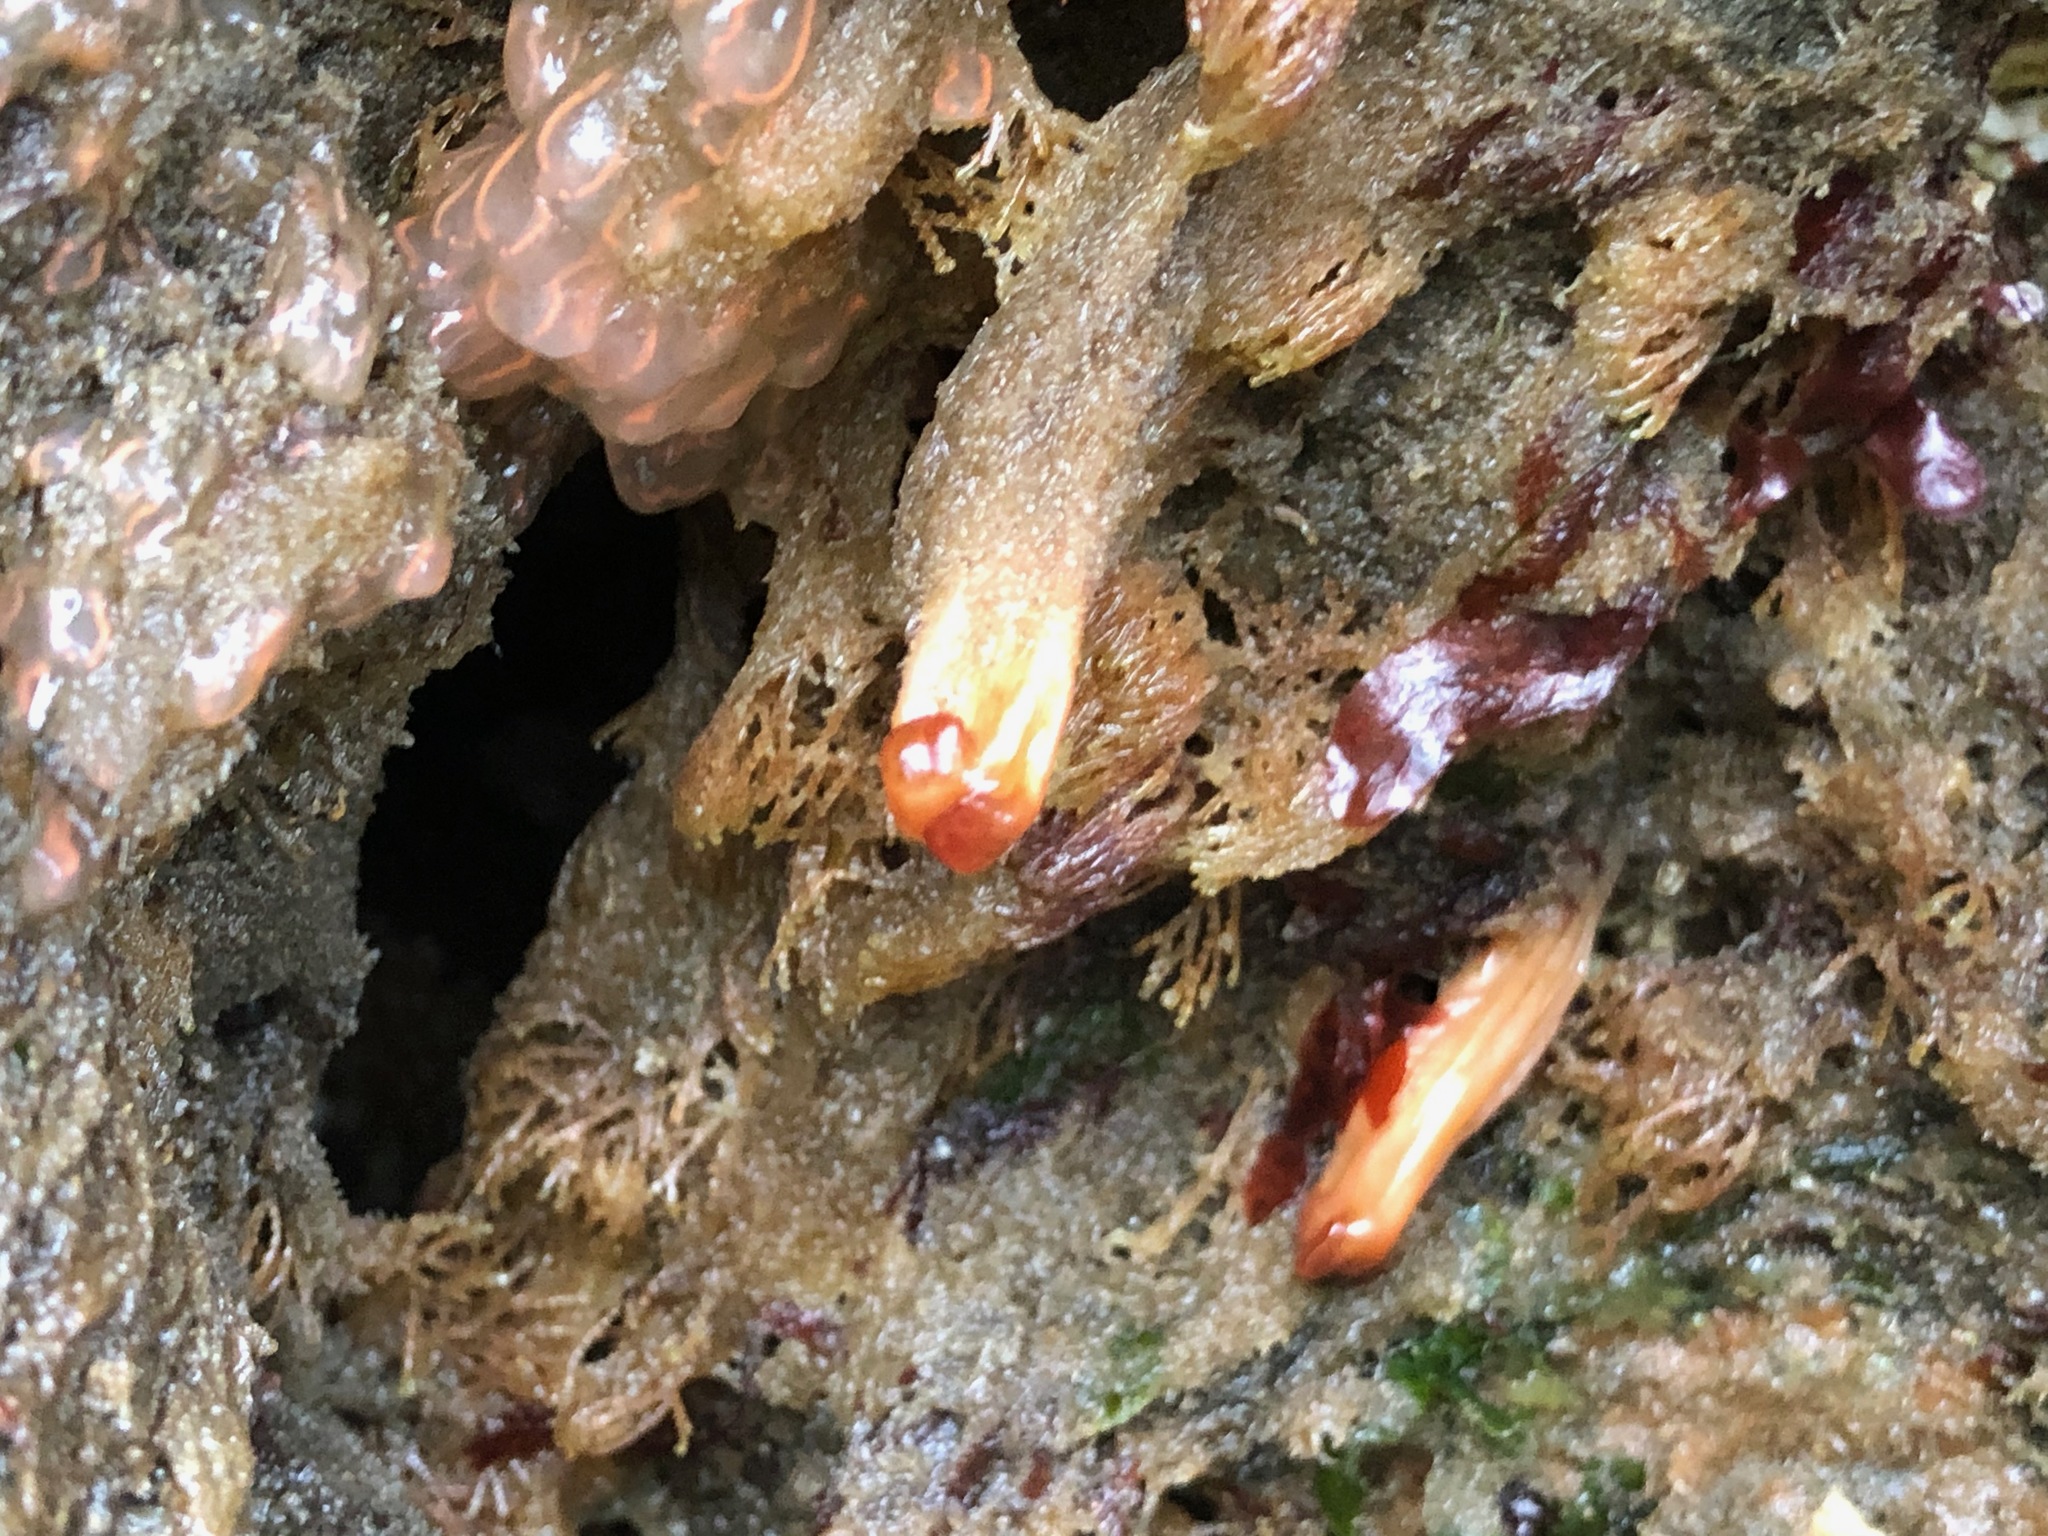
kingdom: Animalia
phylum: Chordata
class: Ascidiacea
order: Stolidobranchia
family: Styelidae
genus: Styela
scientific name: Styela montereyensis
